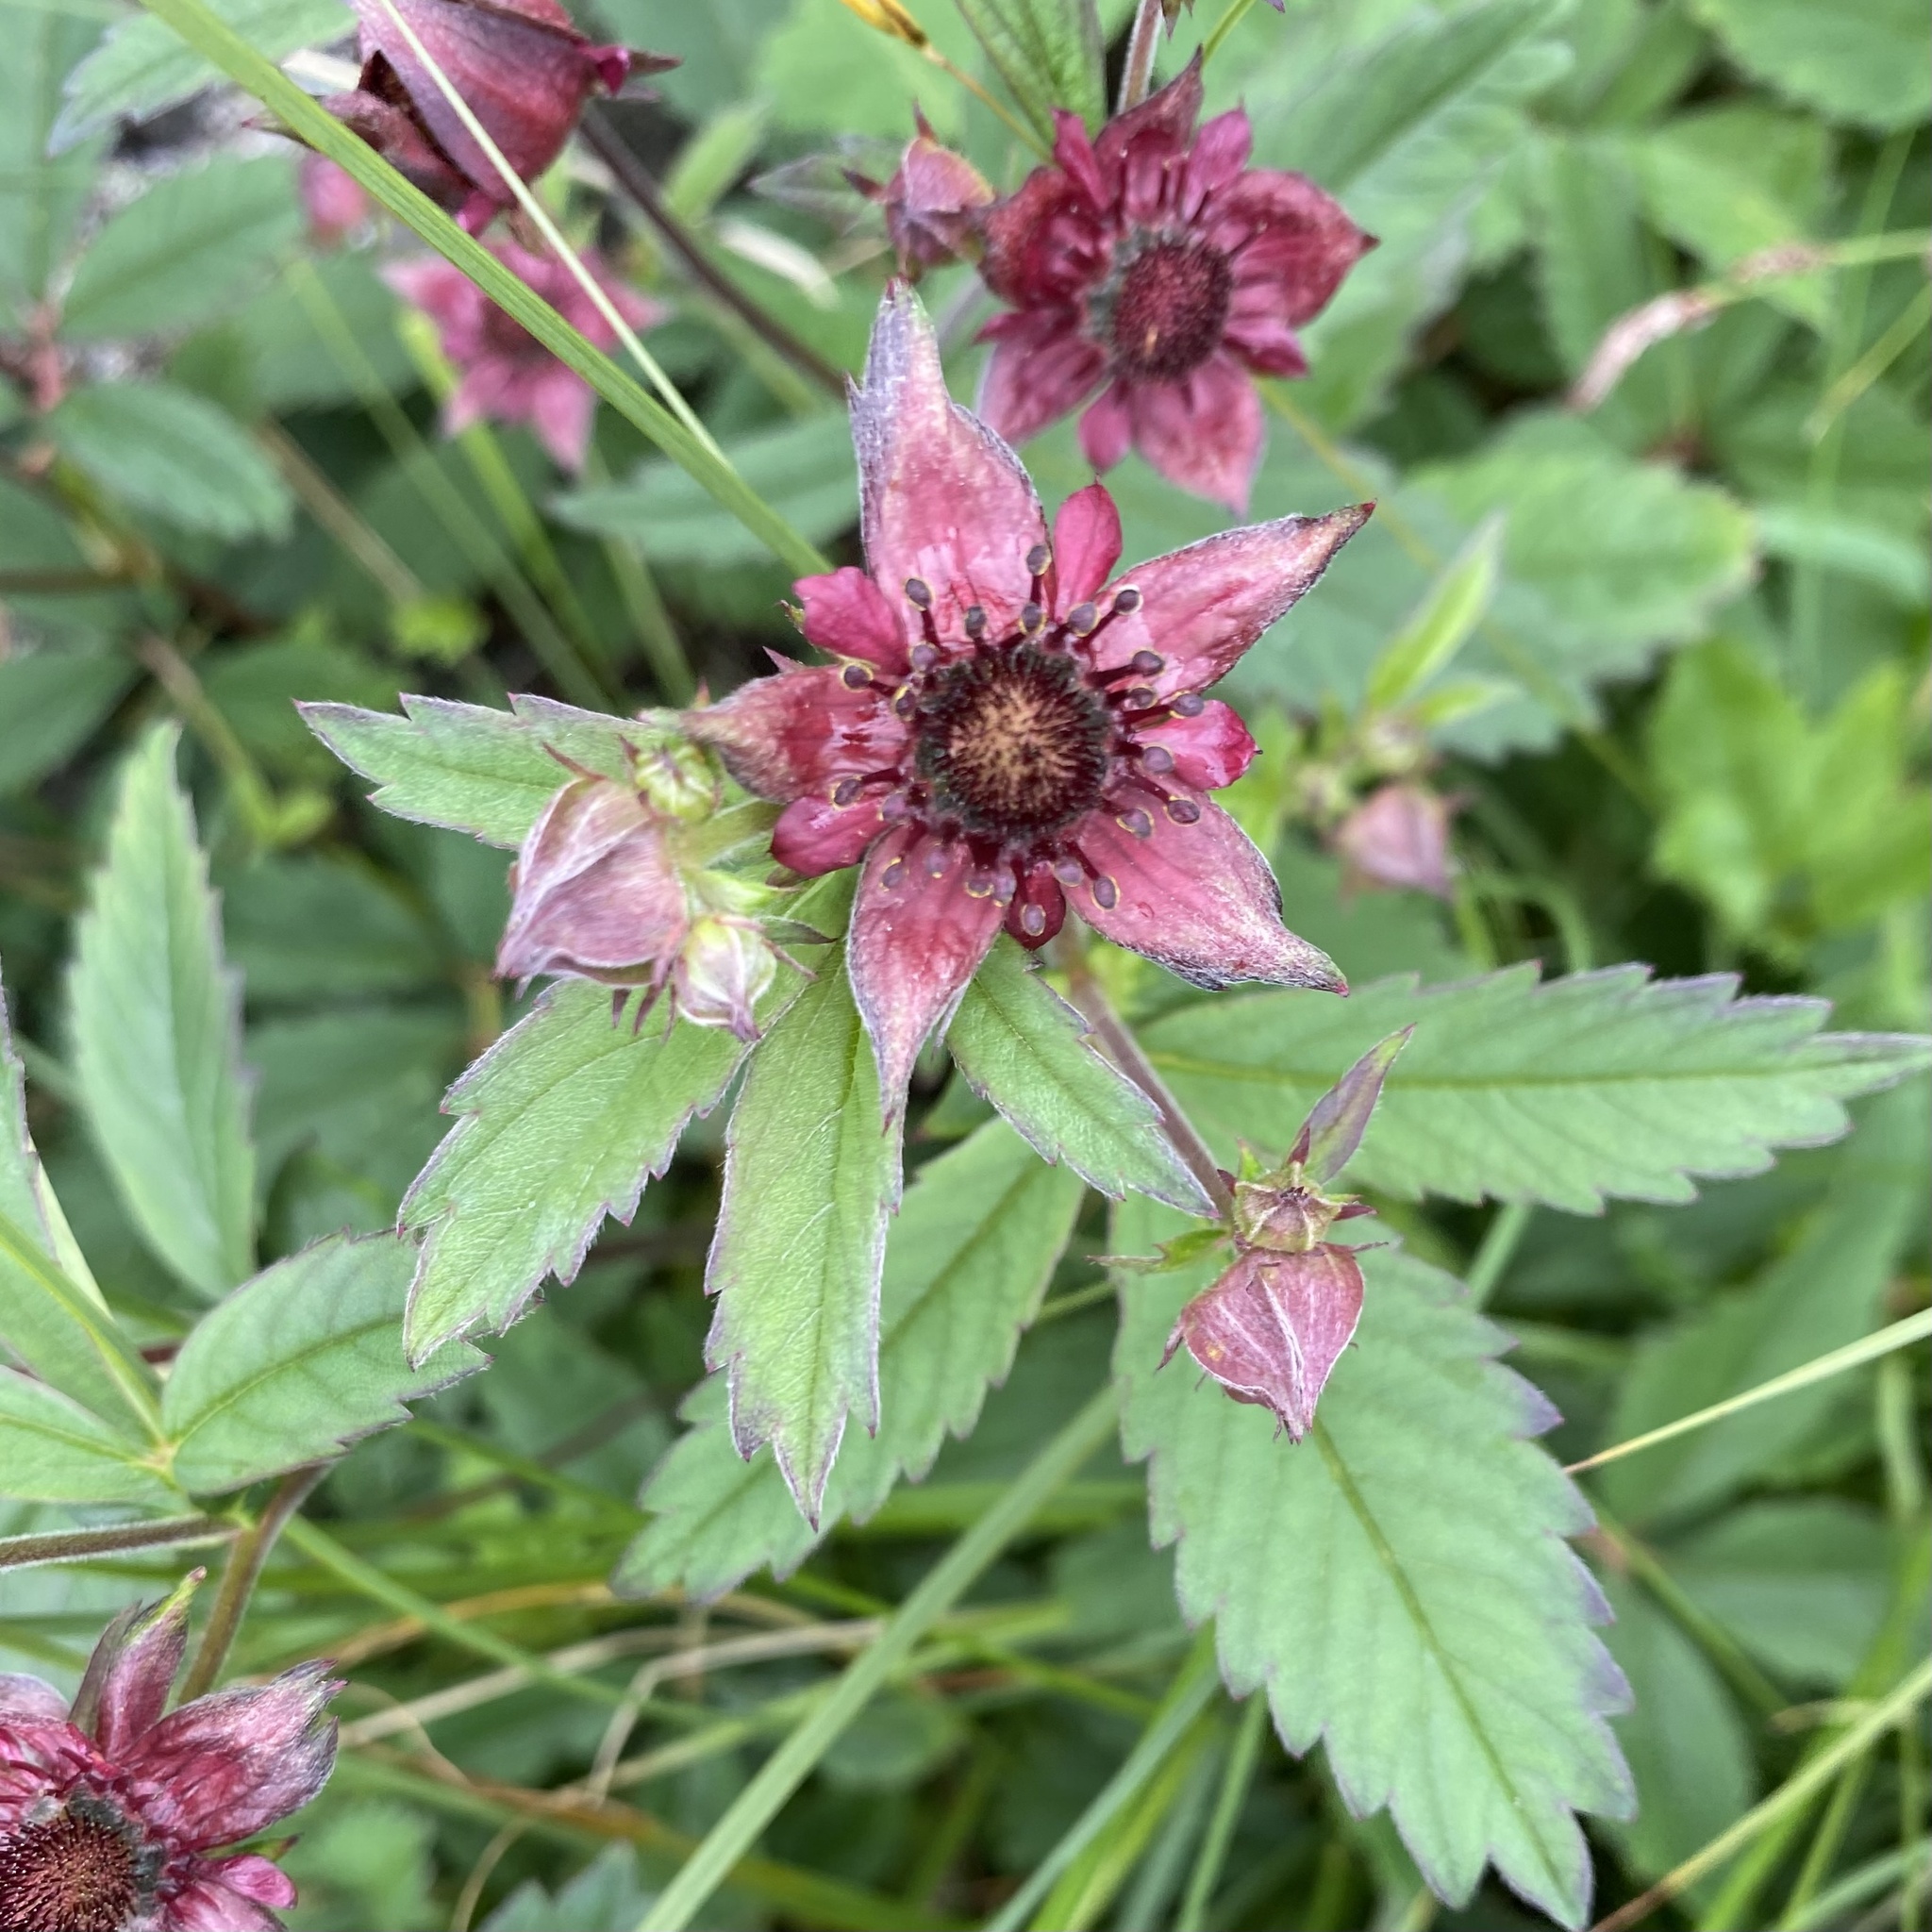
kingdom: Plantae
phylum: Tracheophyta
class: Magnoliopsida
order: Rosales
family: Rosaceae
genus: Comarum
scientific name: Comarum palustre
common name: Marsh cinquefoil
